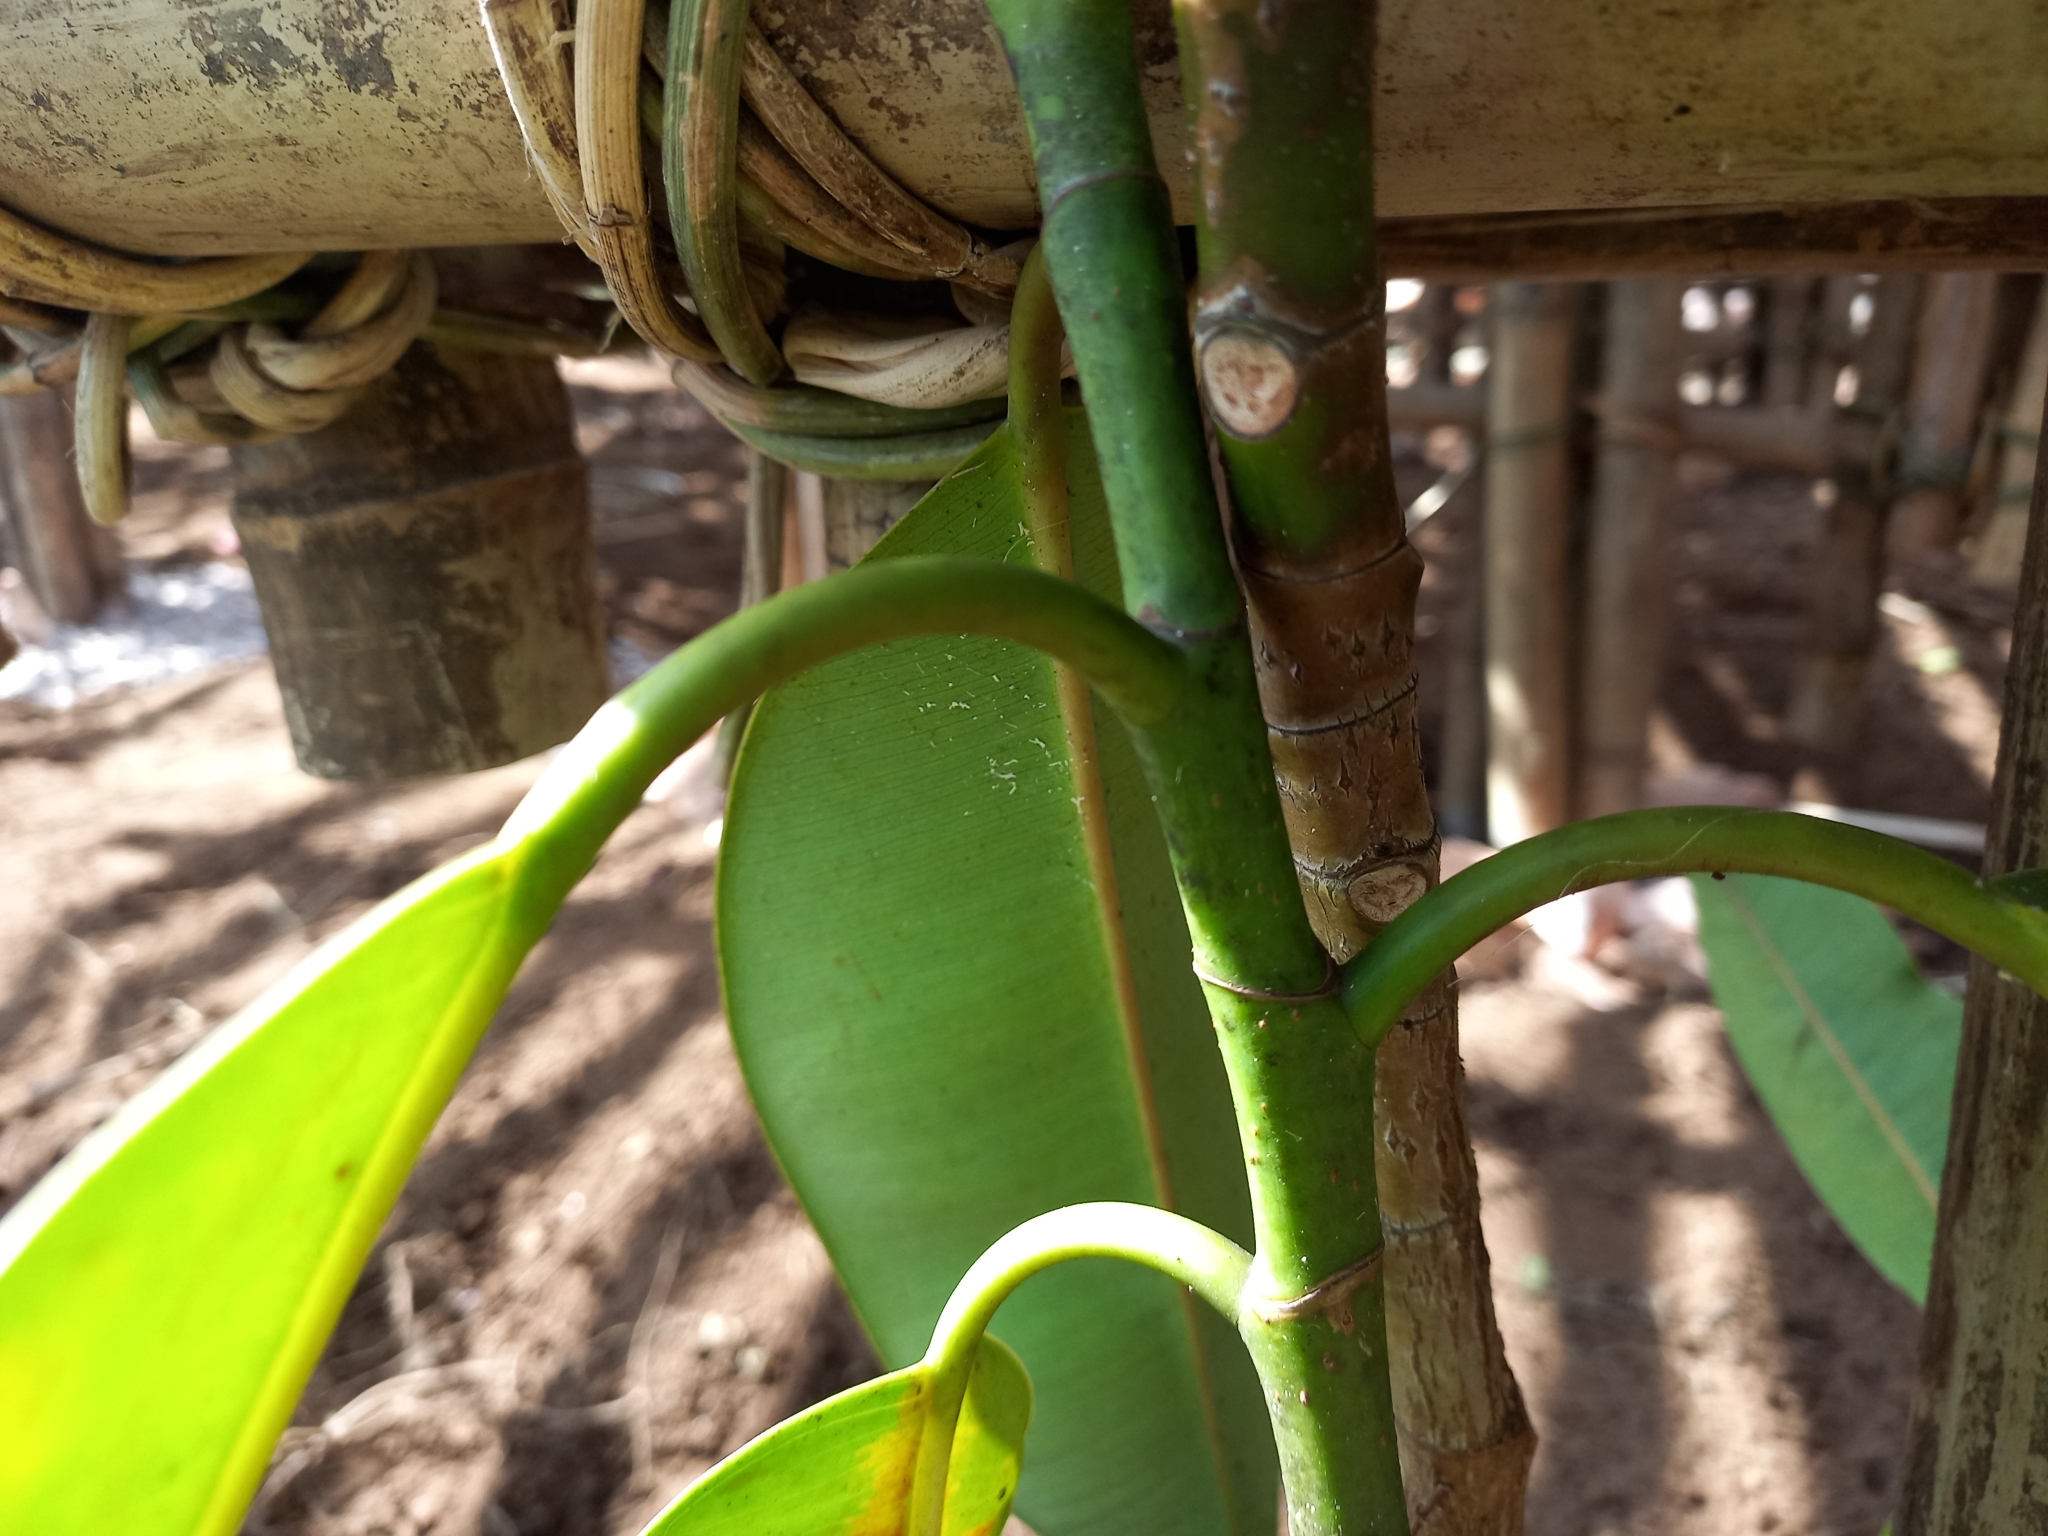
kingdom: Plantae
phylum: Tracheophyta
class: Magnoliopsida
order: Rosales
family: Moraceae
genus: Ficus
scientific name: Ficus elastica
